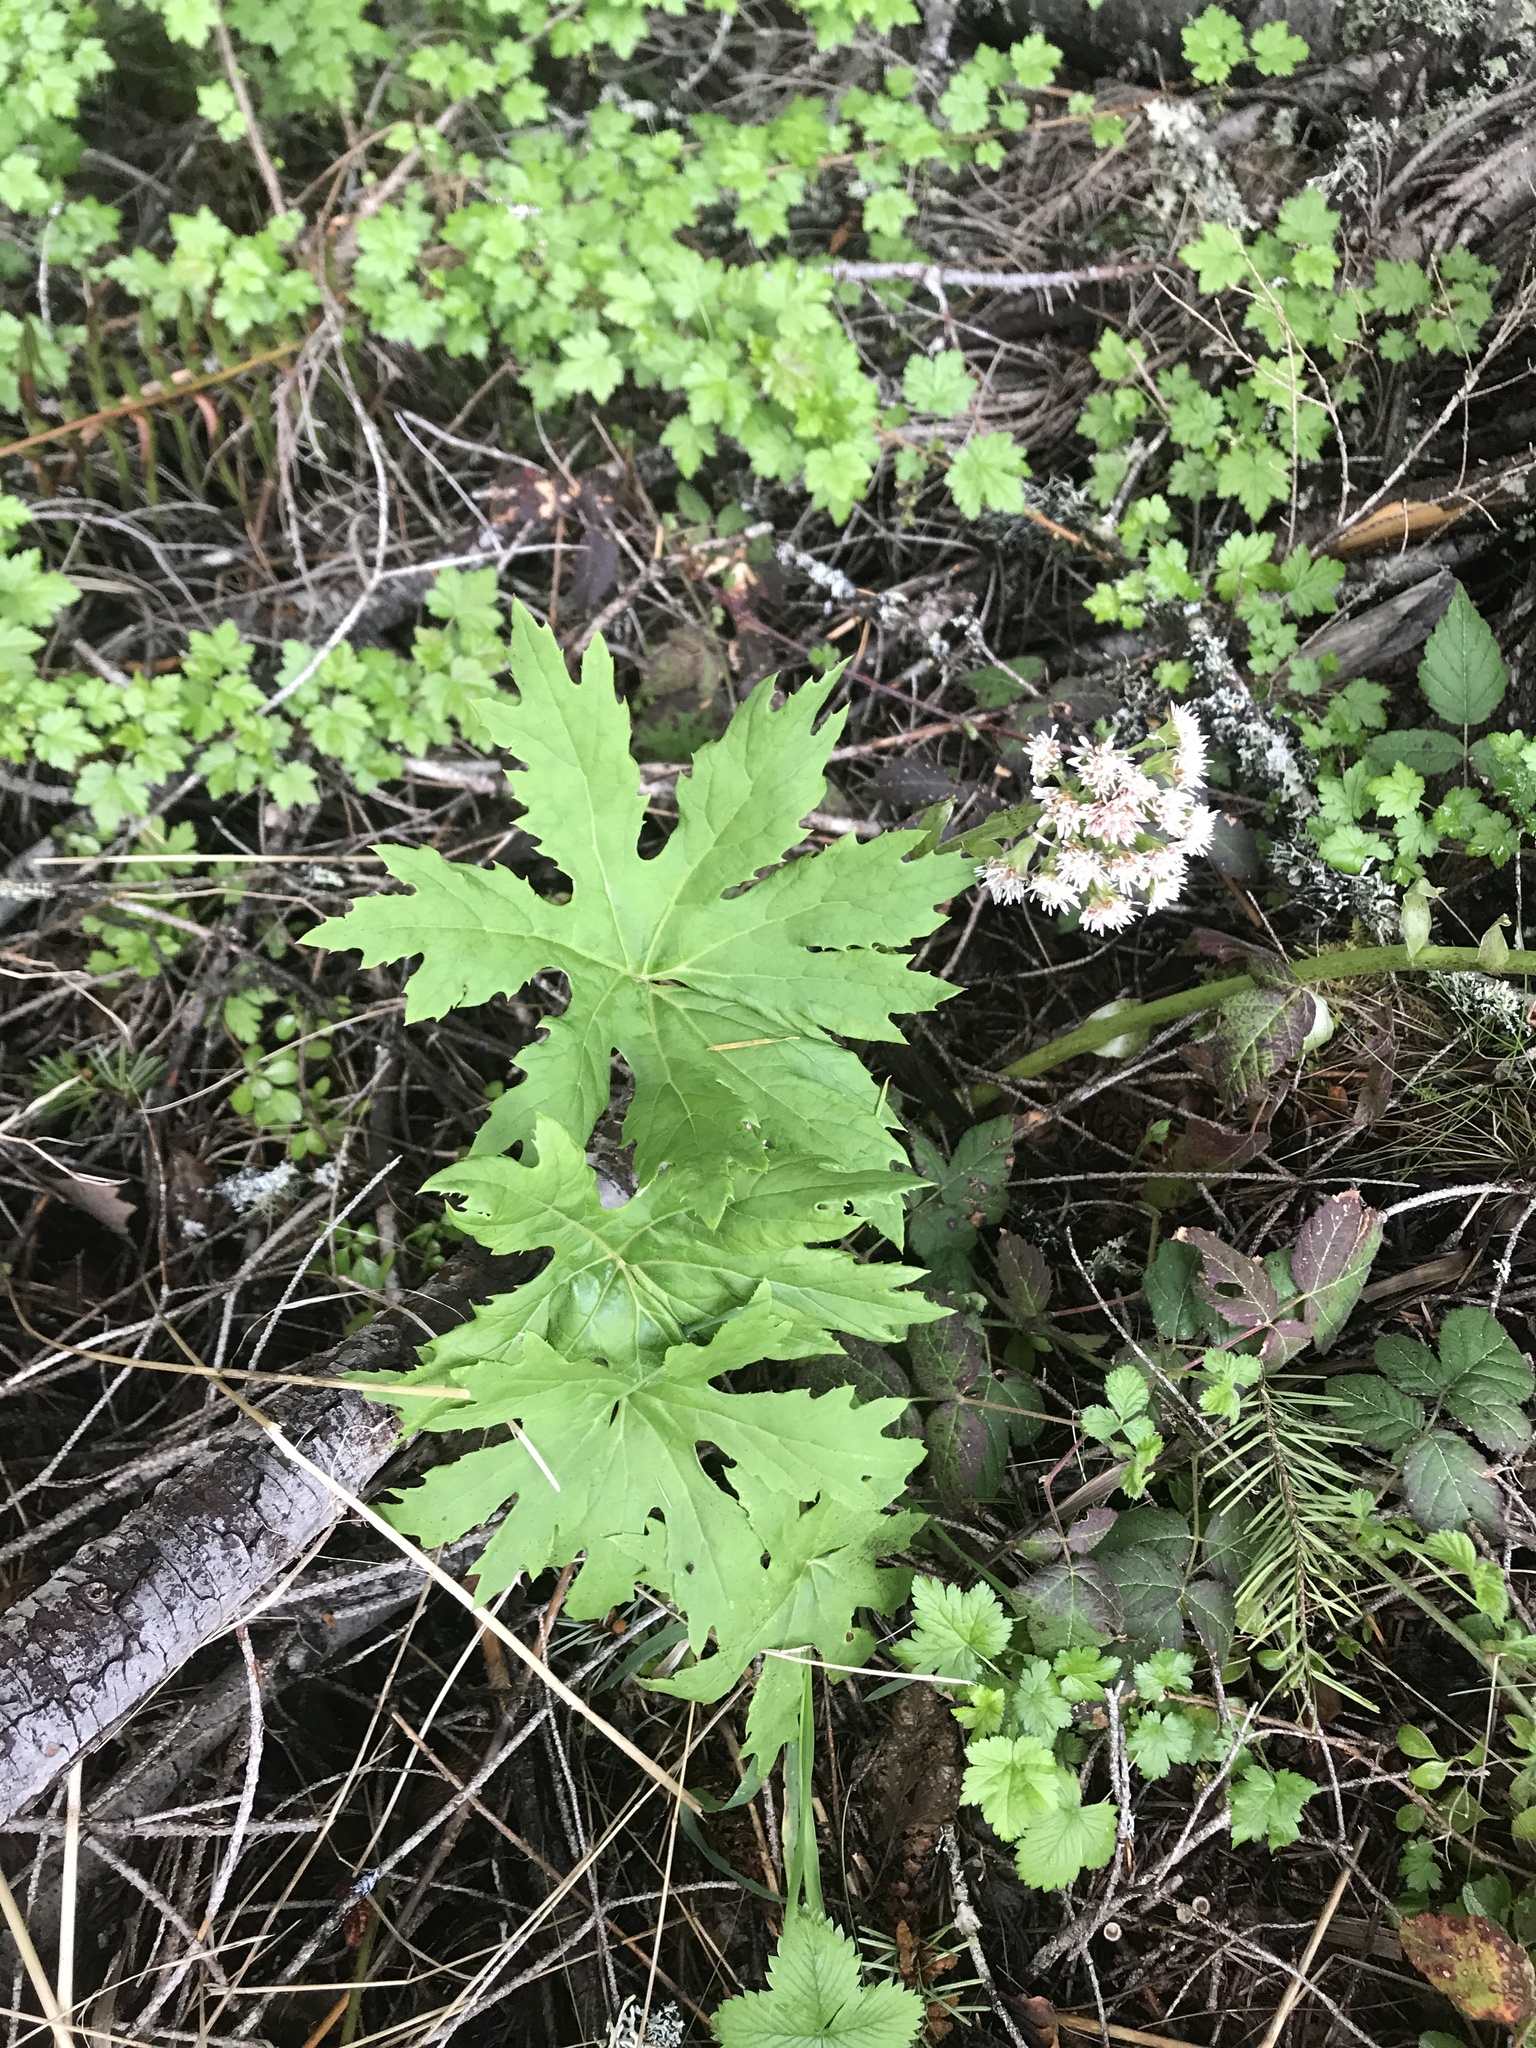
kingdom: Plantae
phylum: Tracheophyta
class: Magnoliopsida
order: Asterales
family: Asteraceae
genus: Petasites
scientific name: Petasites frigidus
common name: Arctic butterbur
